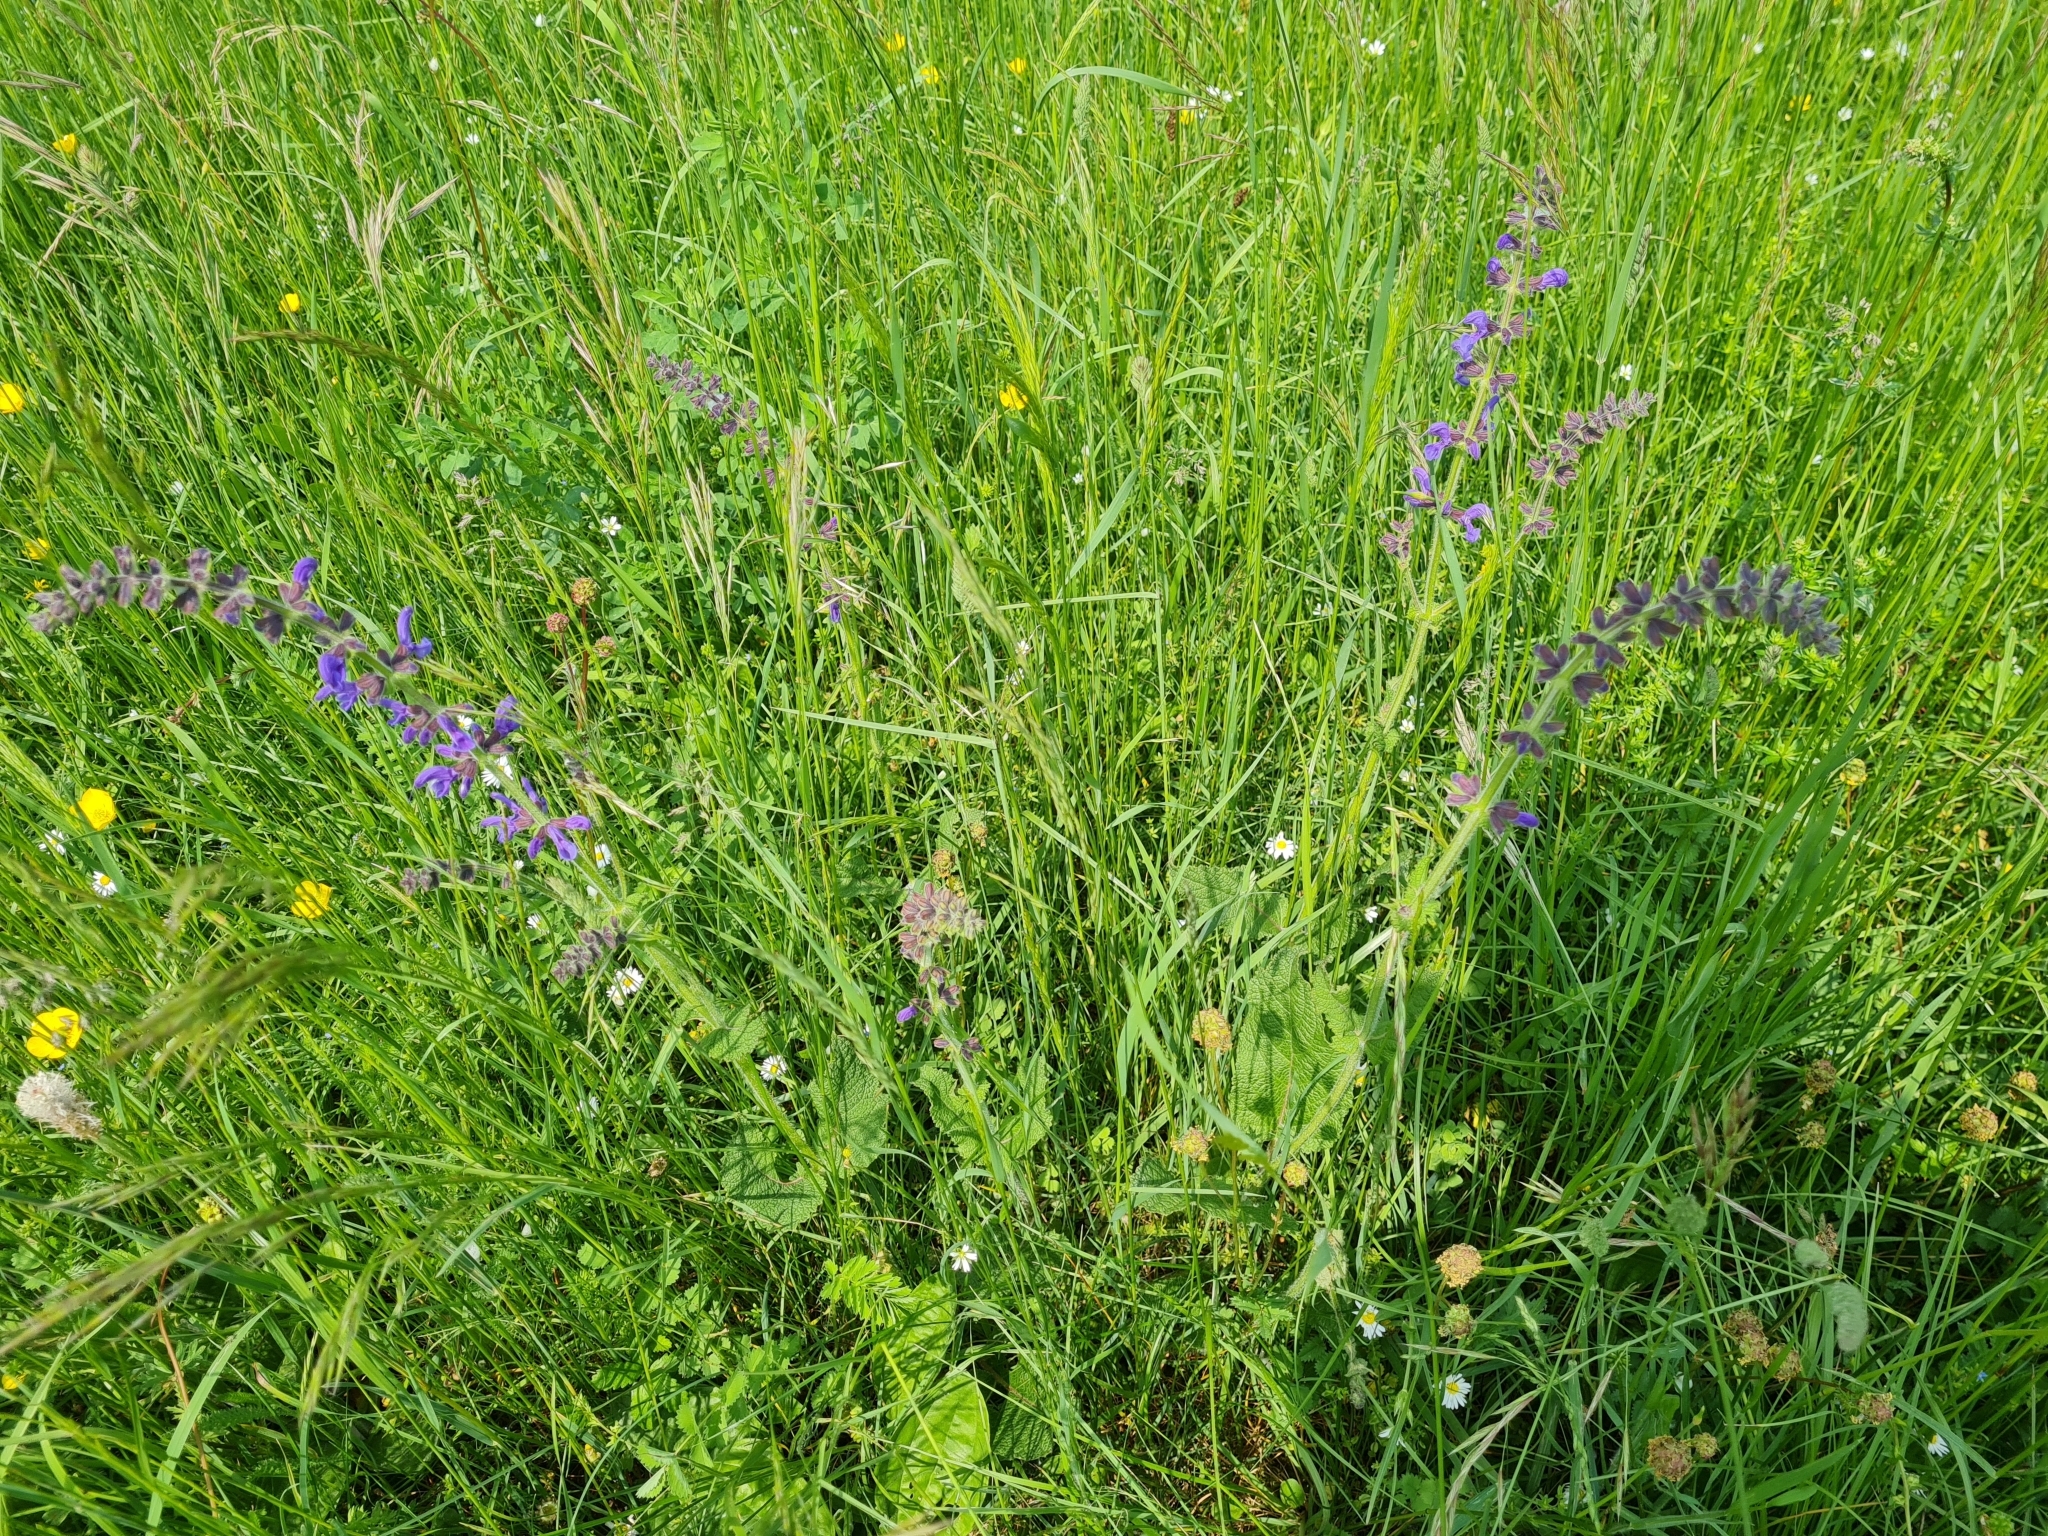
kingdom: Plantae
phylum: Tracheophyta
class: Magnoliopsida
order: Lamiales
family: Lamiaceae
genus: Salvia
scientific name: Salvia pratensis
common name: Meadow sage
